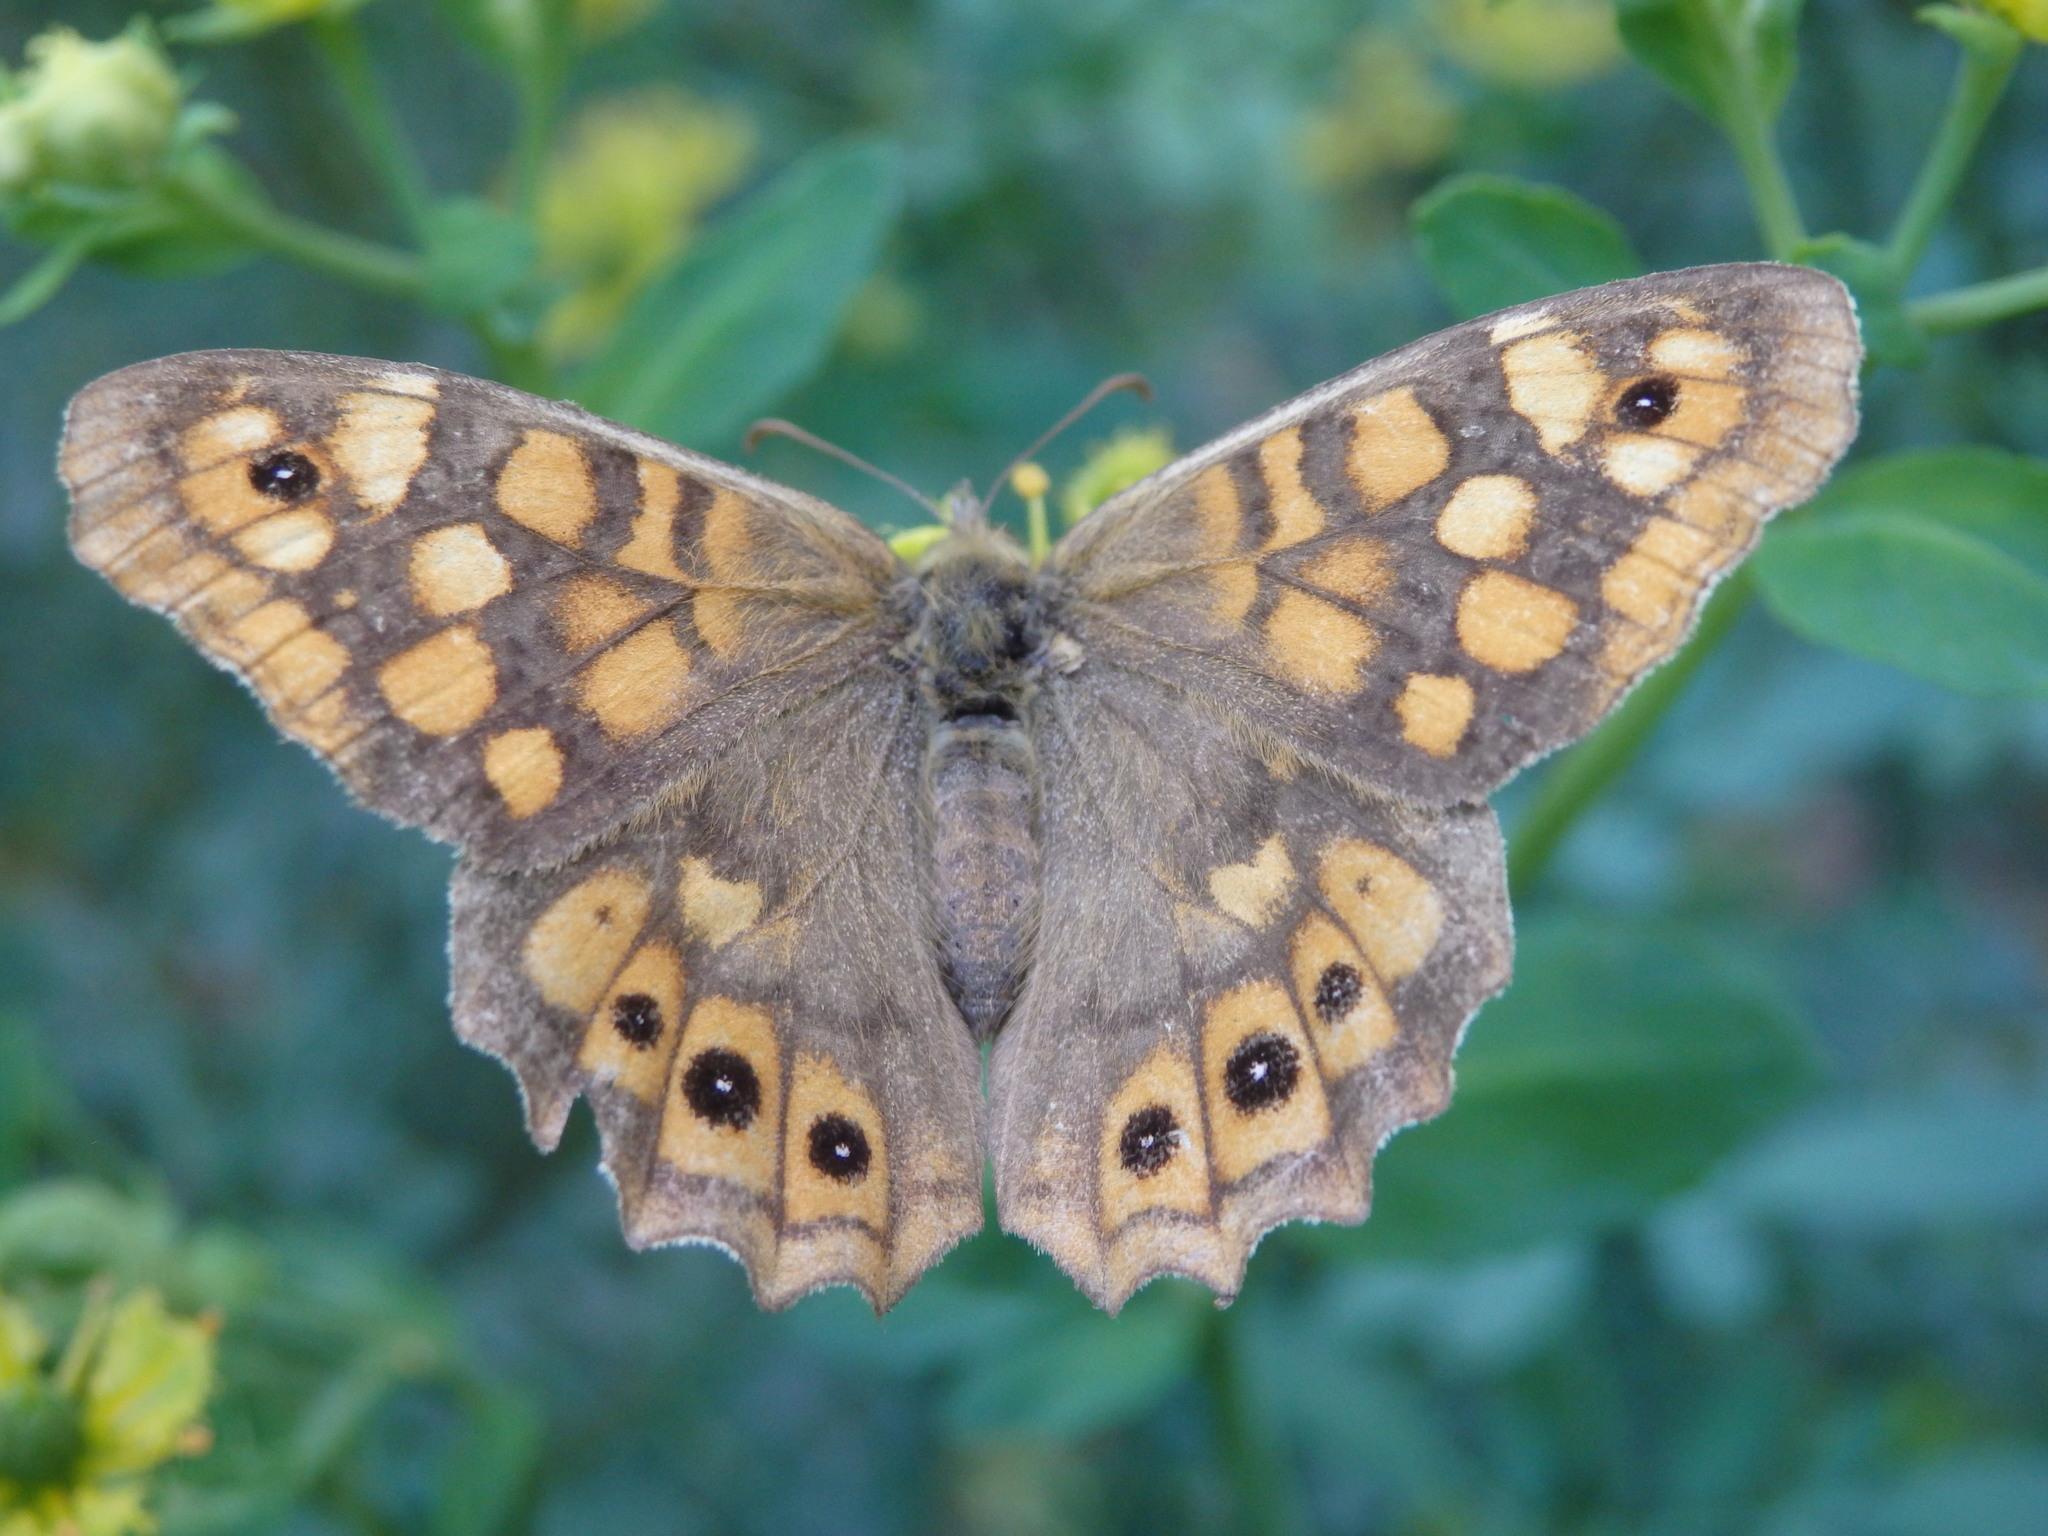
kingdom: Animalia
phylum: Arthropoda
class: Insecta
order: Lepidoptera
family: Nymphalidae
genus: Pararge
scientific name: Pararge aegeria
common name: Speckled wood
